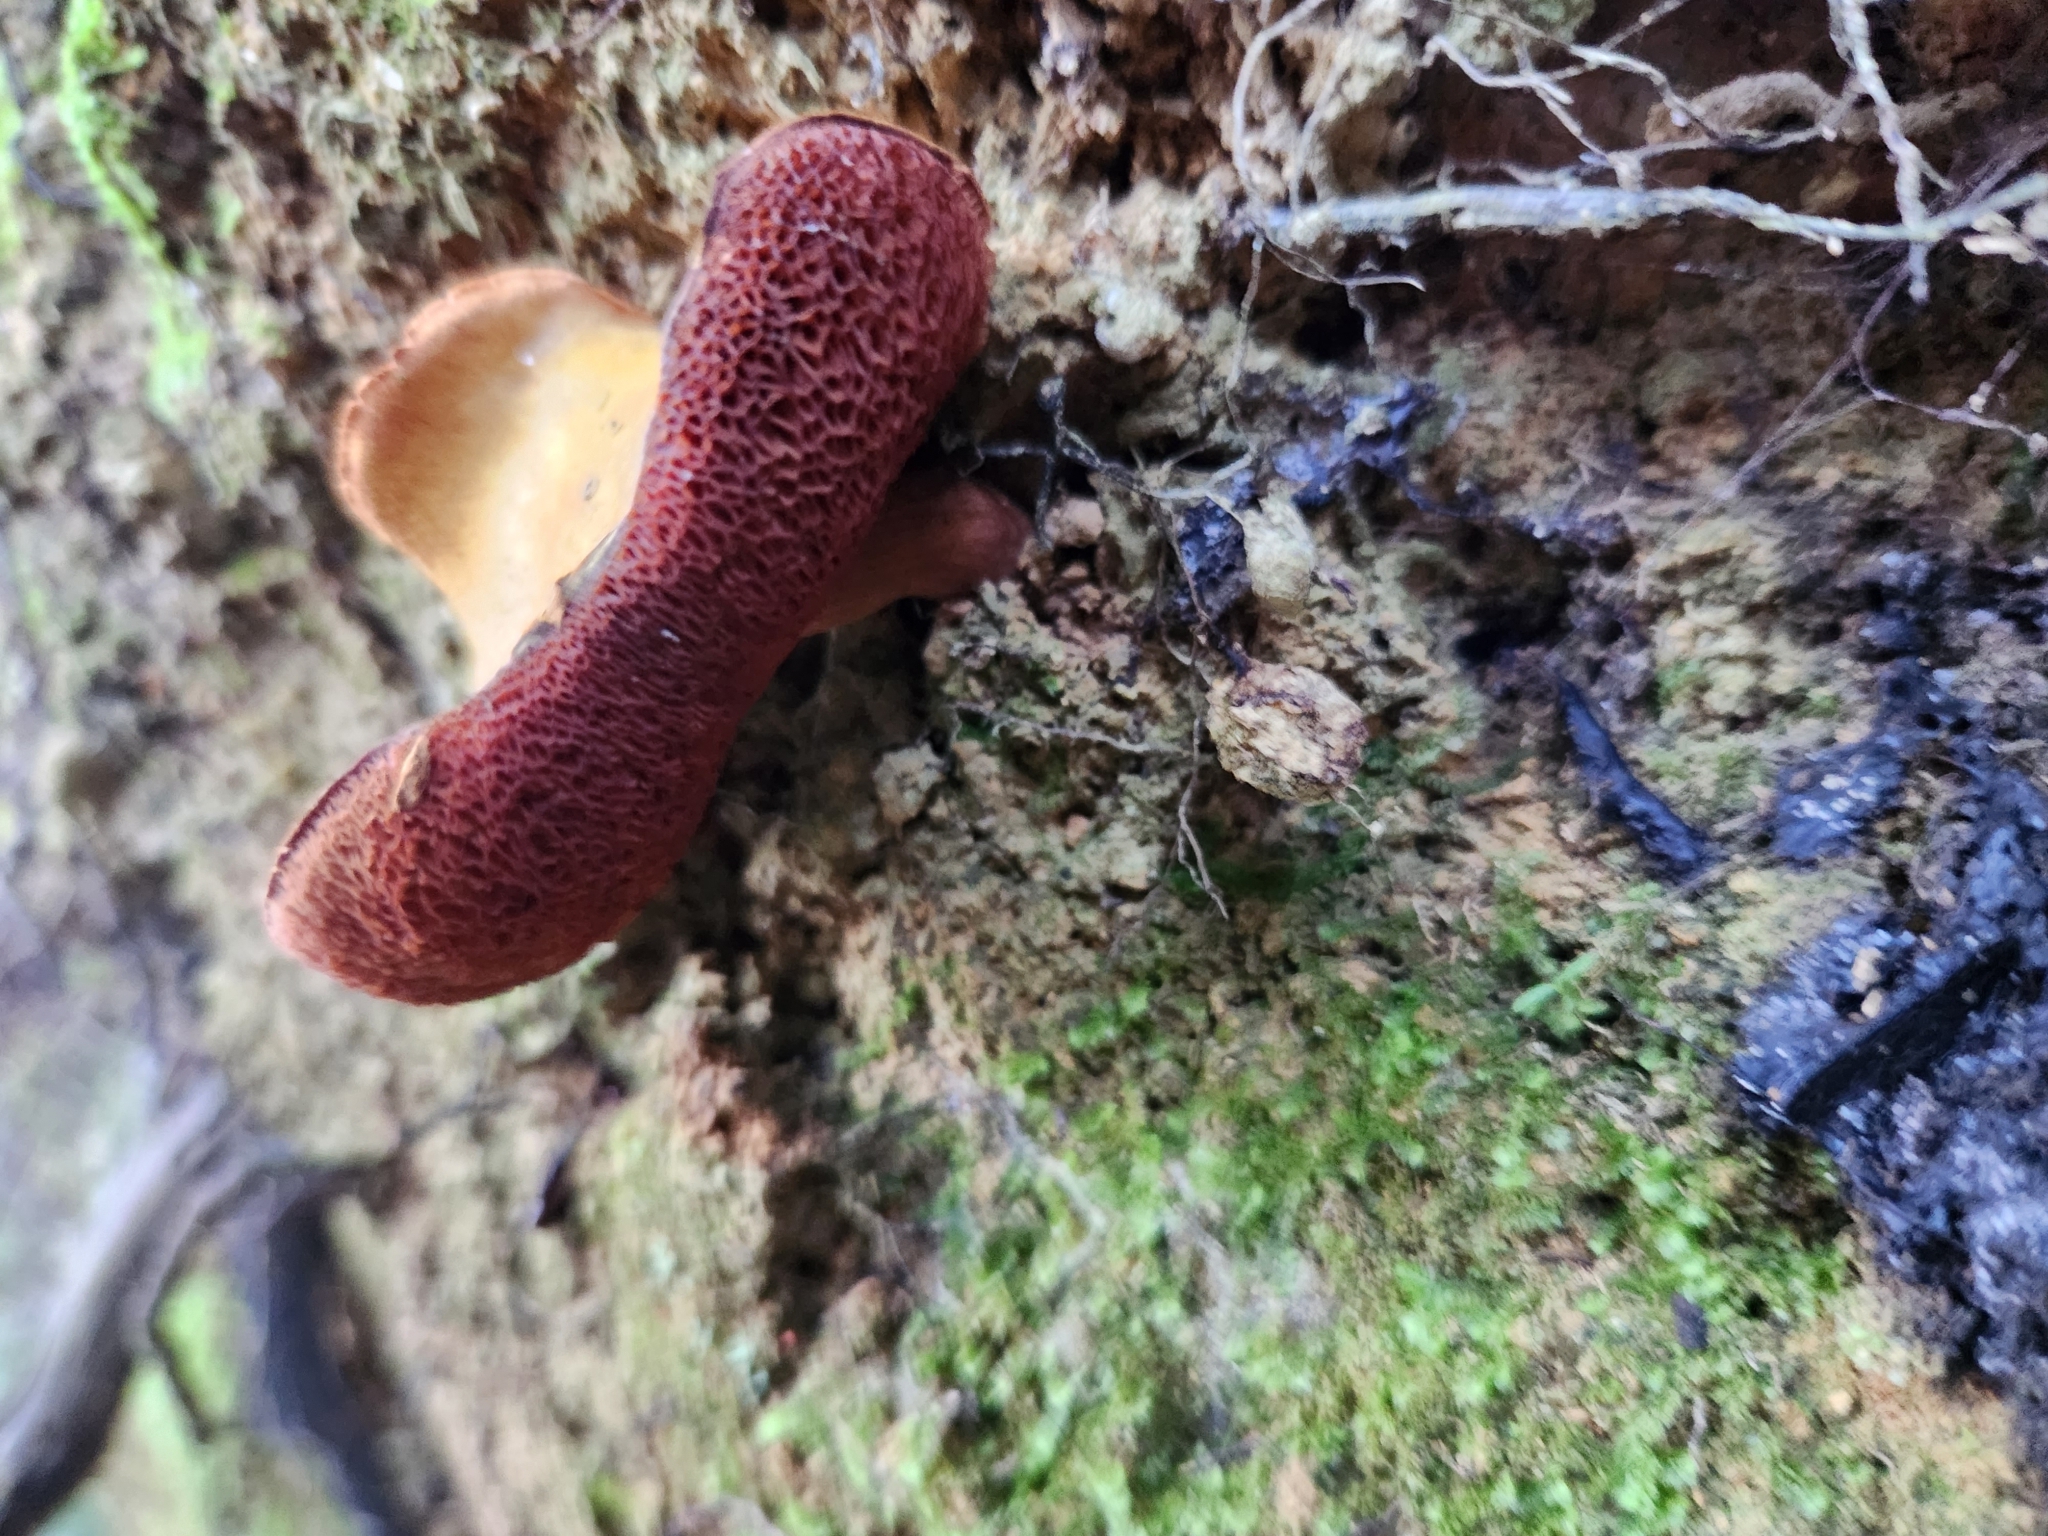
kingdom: Fungi
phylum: Basidiomycota
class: Agaricomycetes
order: Boletales
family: Boletaceae
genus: Chalciporus
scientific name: Chalciporus piperatus
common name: Peppery bolete
